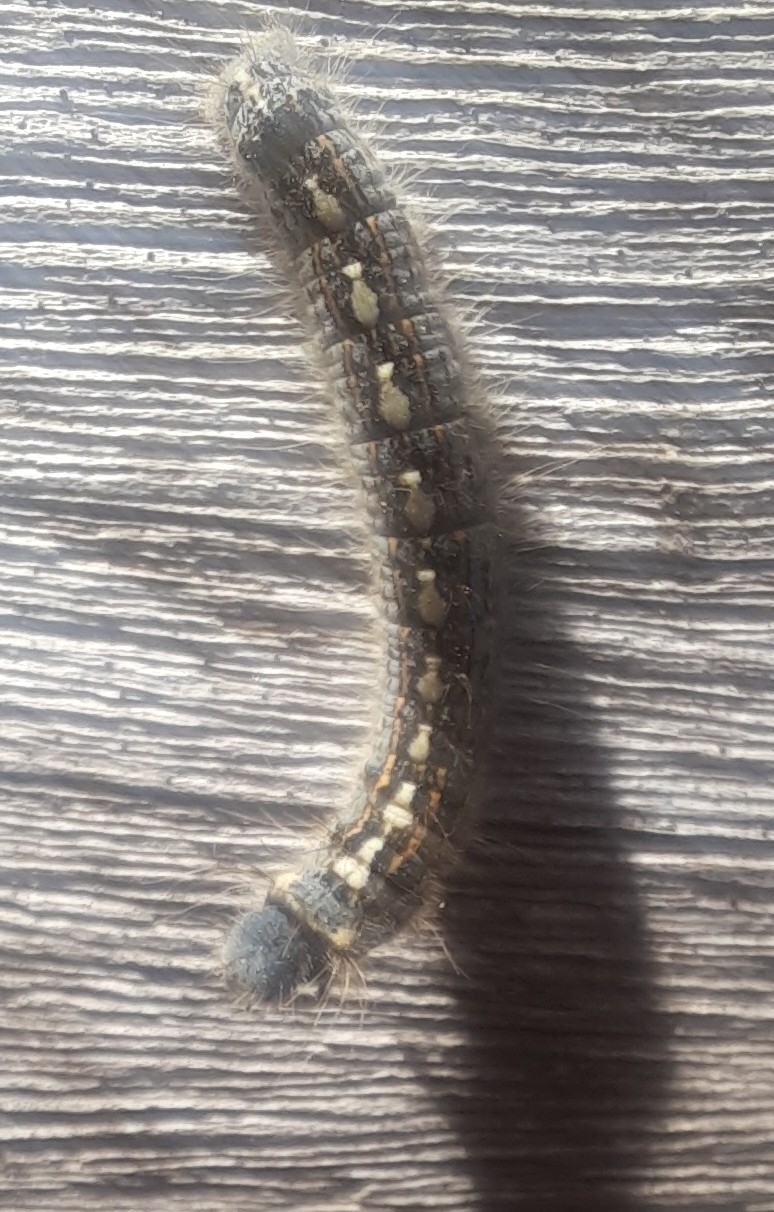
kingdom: Animalia
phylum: Arthropoda
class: Insecta
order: Lepidoptera
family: Lasiocampidae
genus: Malacosoma
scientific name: Malacosoma disstria
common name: Forest tent caterpillar
